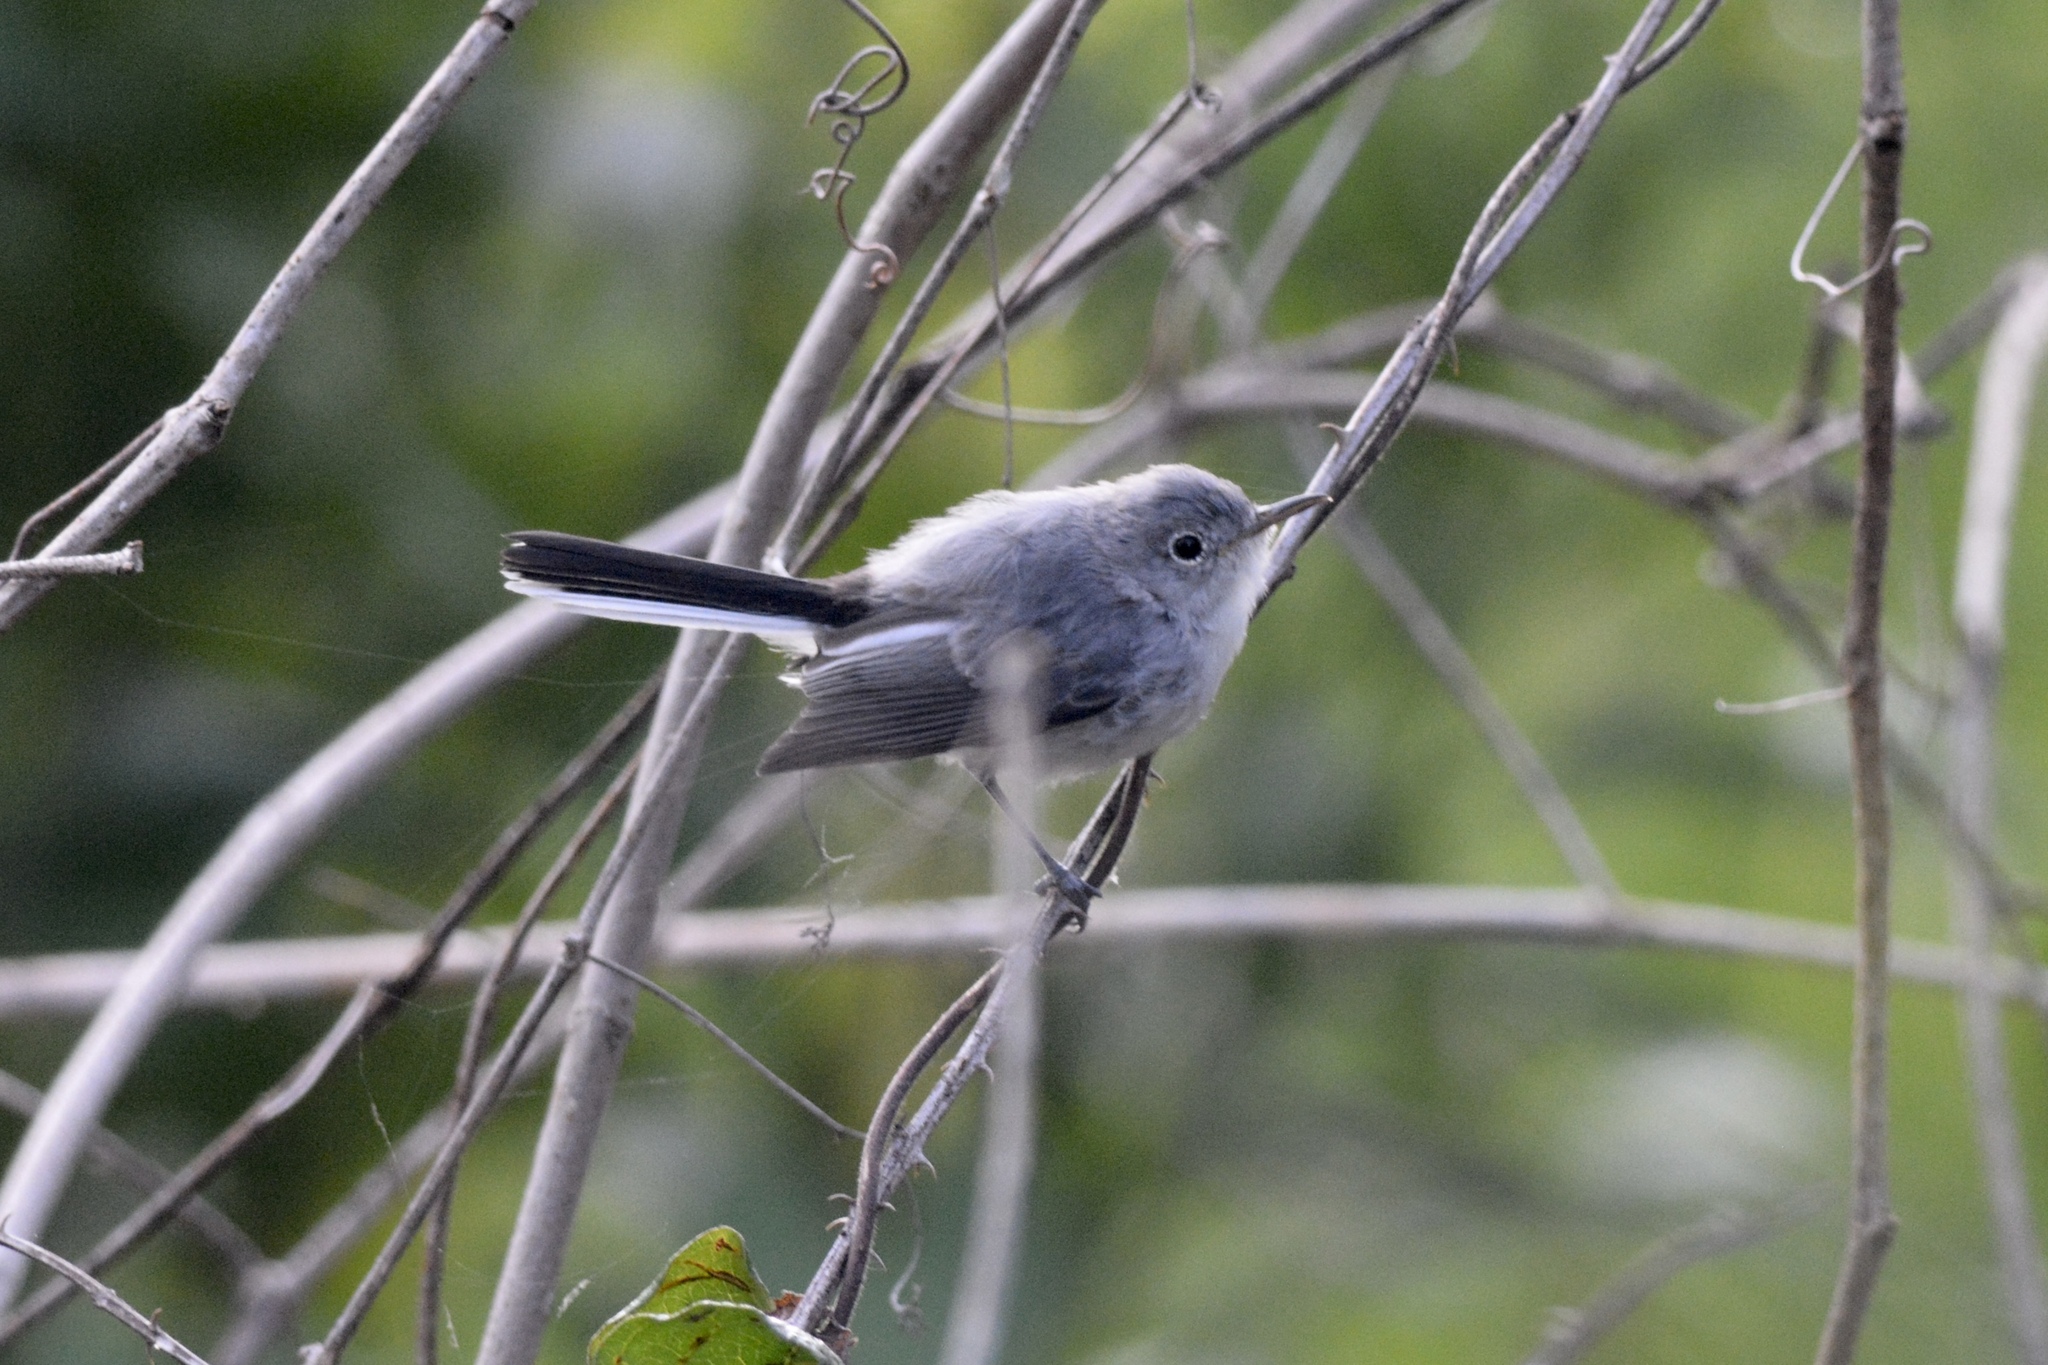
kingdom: Animalia
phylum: Chordata
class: Aves
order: Passeriformes
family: Polioptilidae
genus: Polioptila
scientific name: Polioptila caerulea
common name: Blue-gray gnatcatcher
